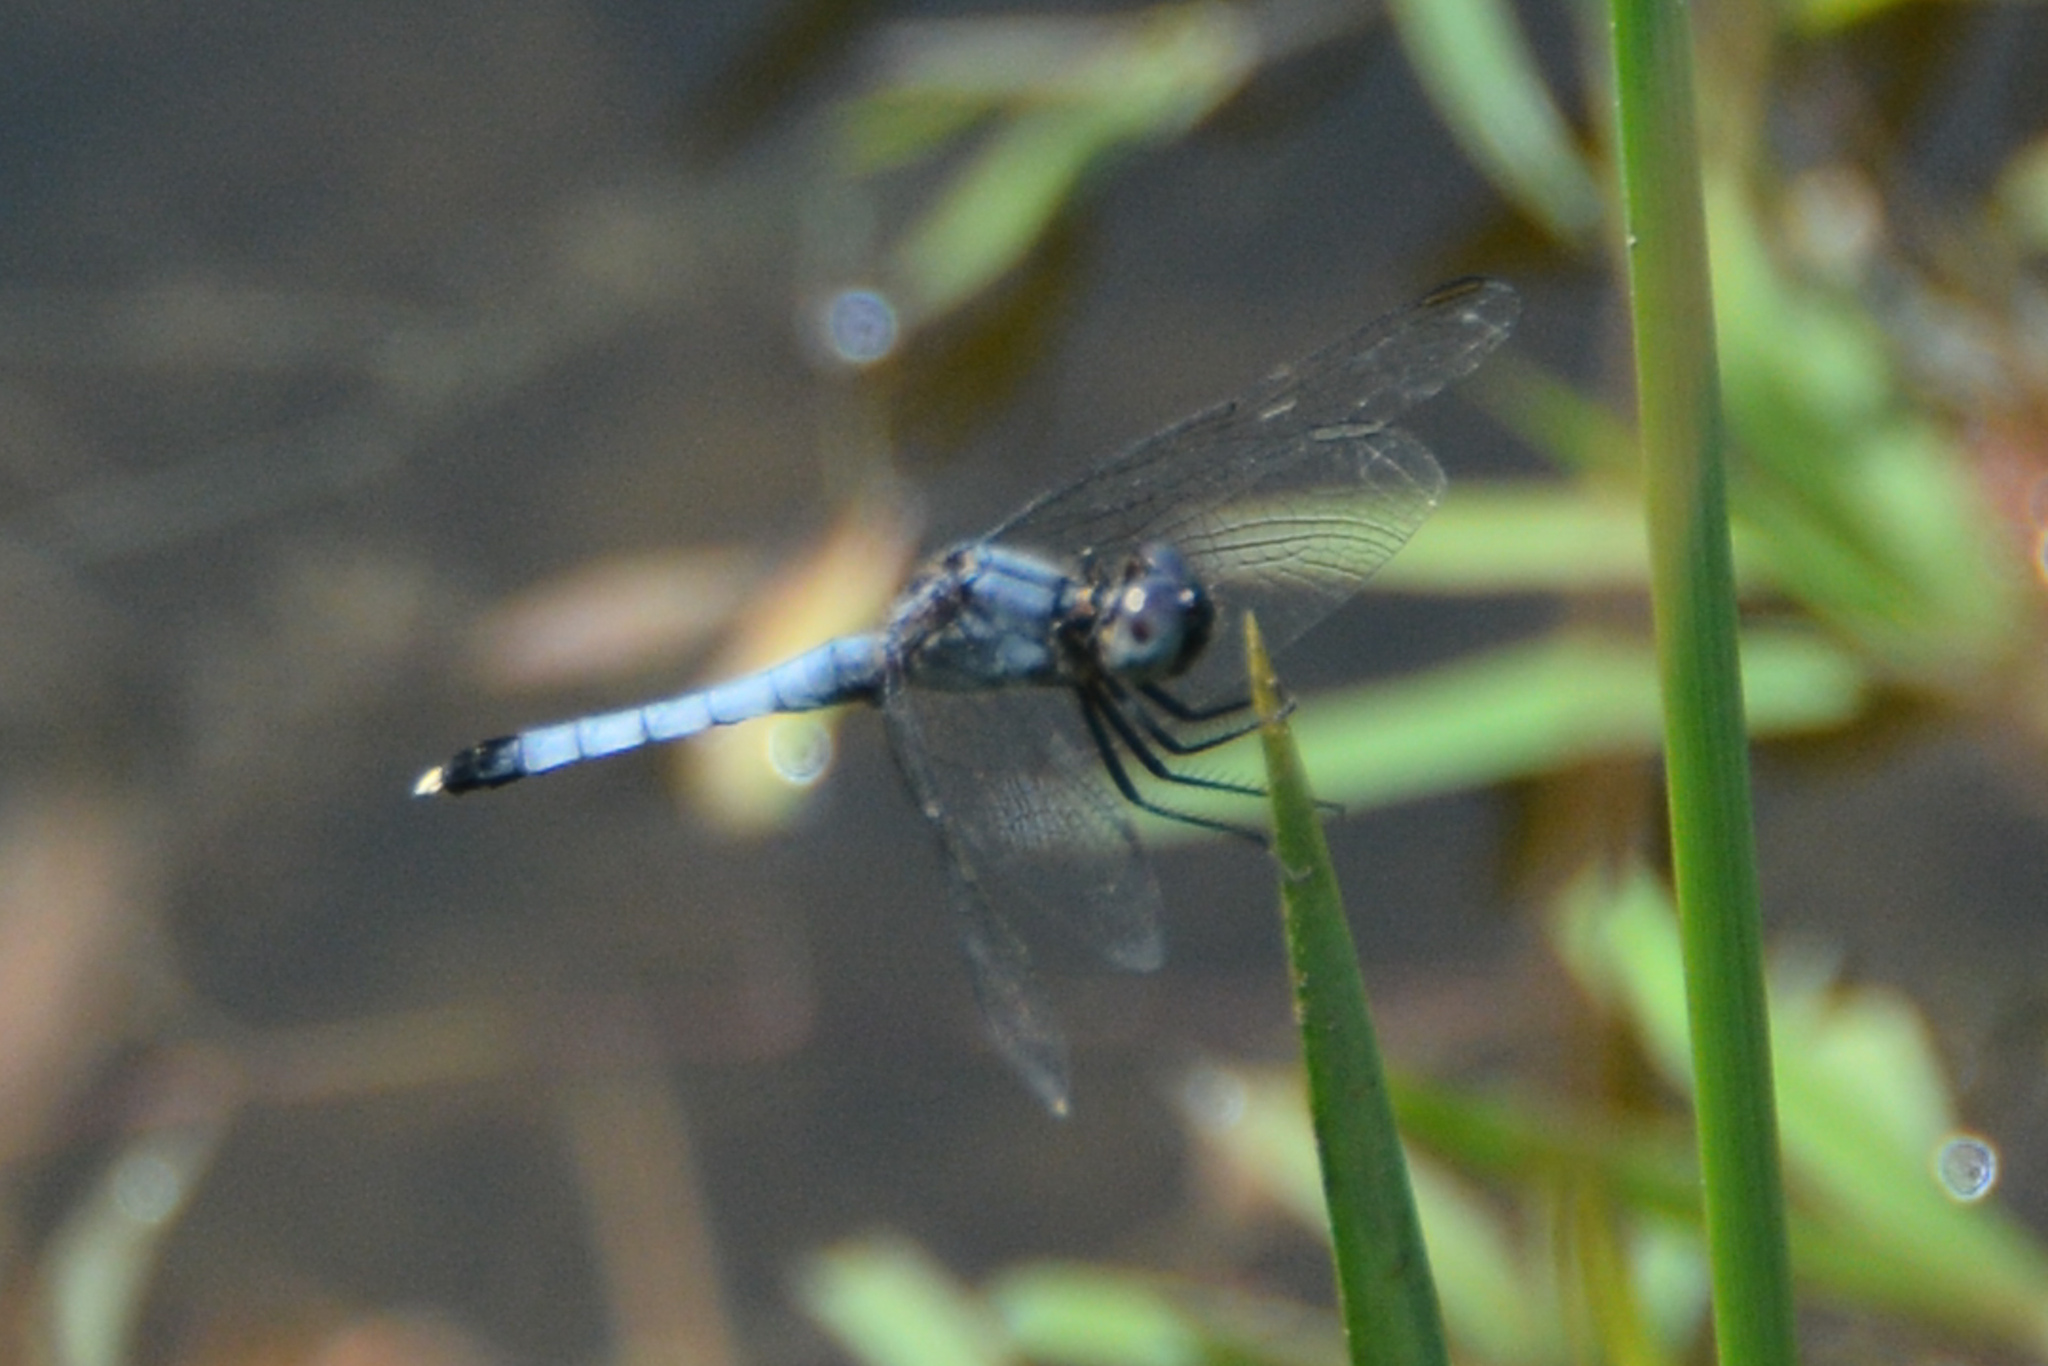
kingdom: Animalia
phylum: Arthropoda
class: Insecta
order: Odonata
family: Libellulidae
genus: Erythrodiplax
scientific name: Erythrodiplax minuscula
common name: Little blue dragonlet
